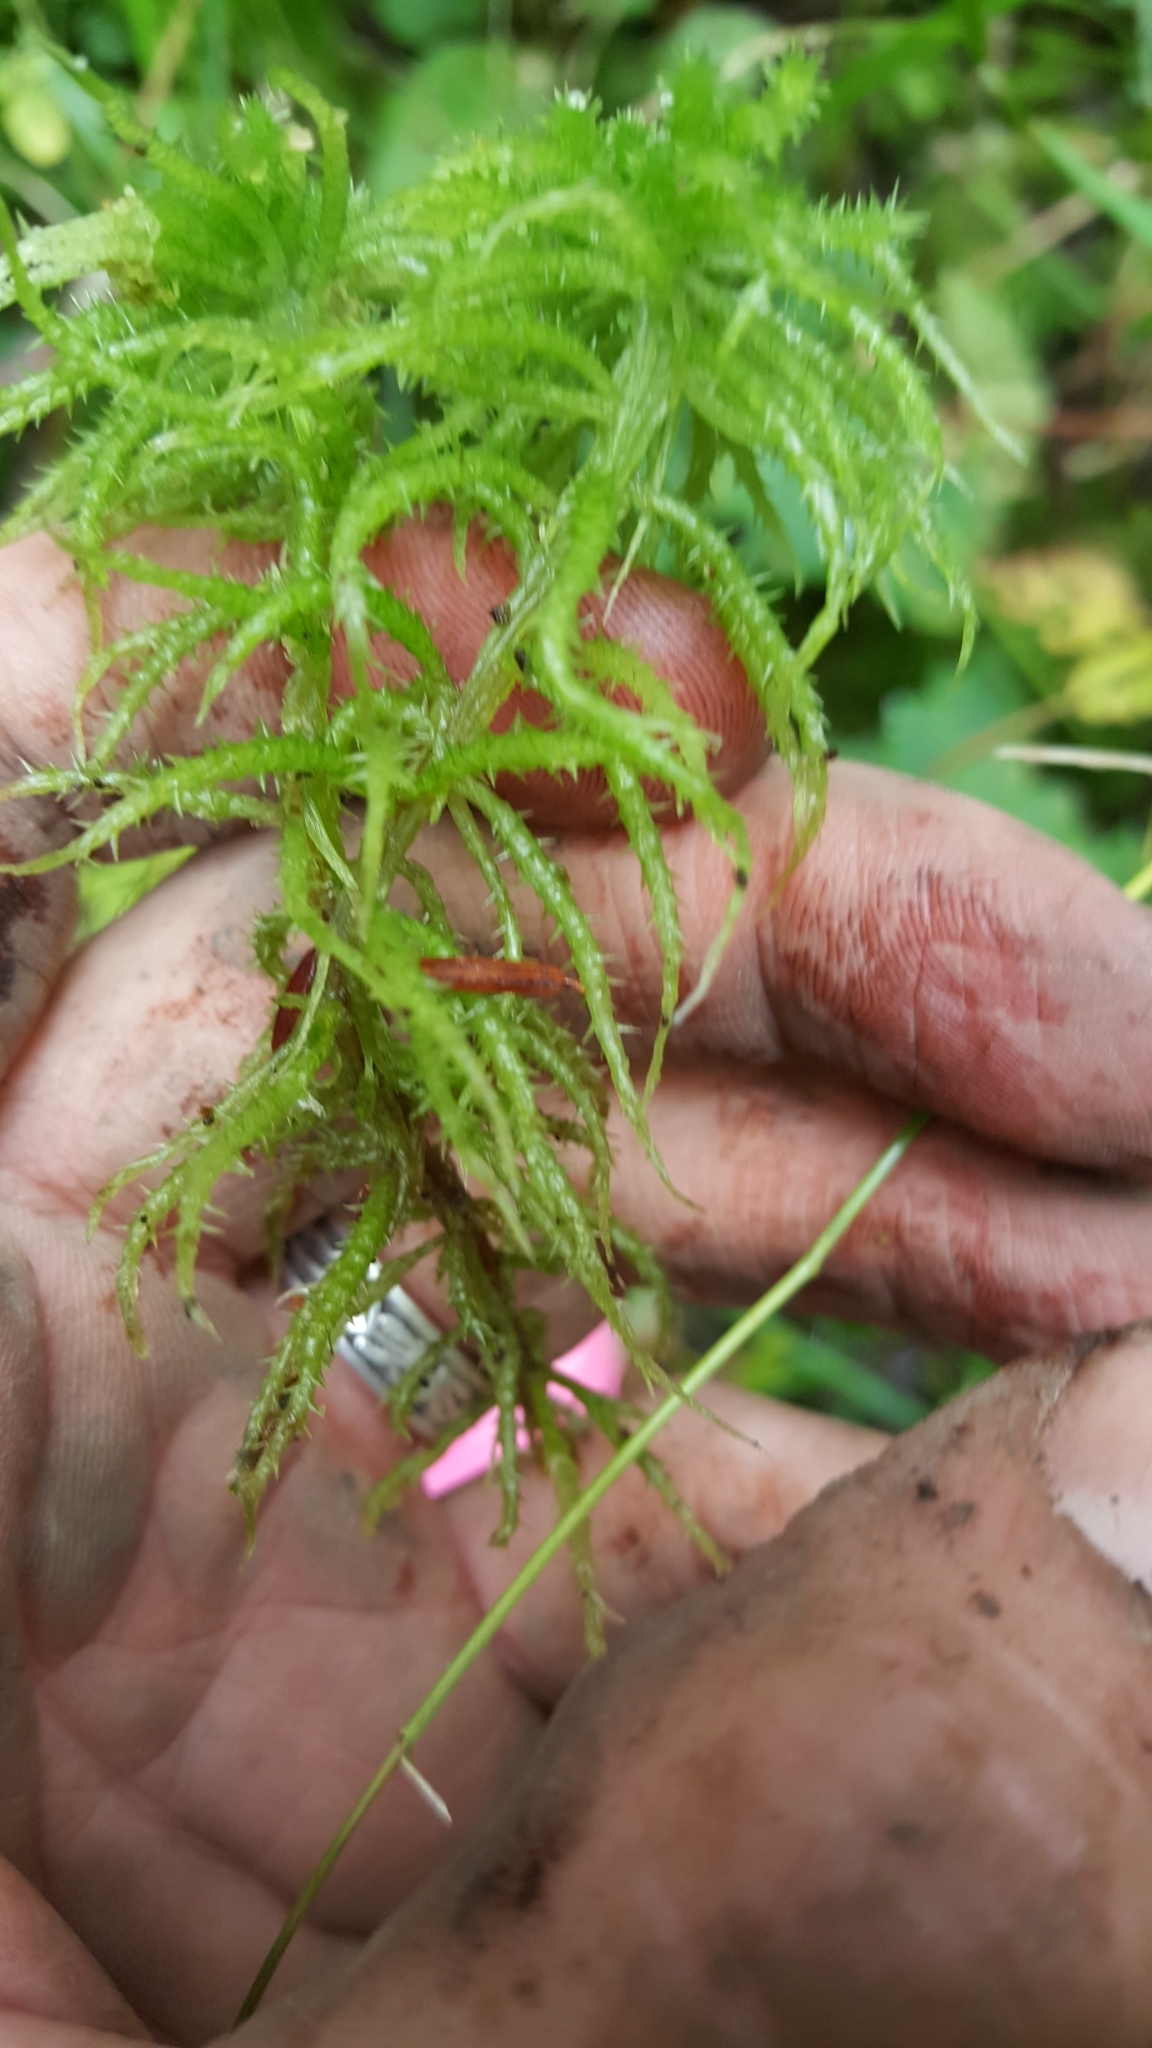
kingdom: Plantae
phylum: Bryophyta
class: Sphagnopsida
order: Sphagnales
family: Sphagnaceae
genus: Sphagnum
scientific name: Sphagnum squarrosum
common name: Shaggy peat moss
